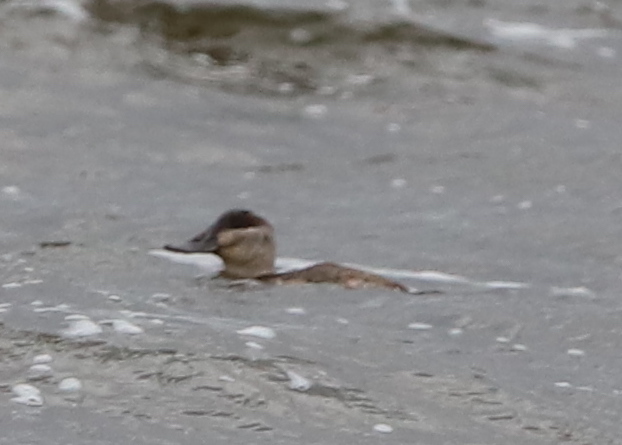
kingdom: Animalia
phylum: Chordata
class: Aves
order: Anseriformes
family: Anatidae
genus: Oxyura
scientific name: Oxyura jamaicensis
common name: Ruddy duck
